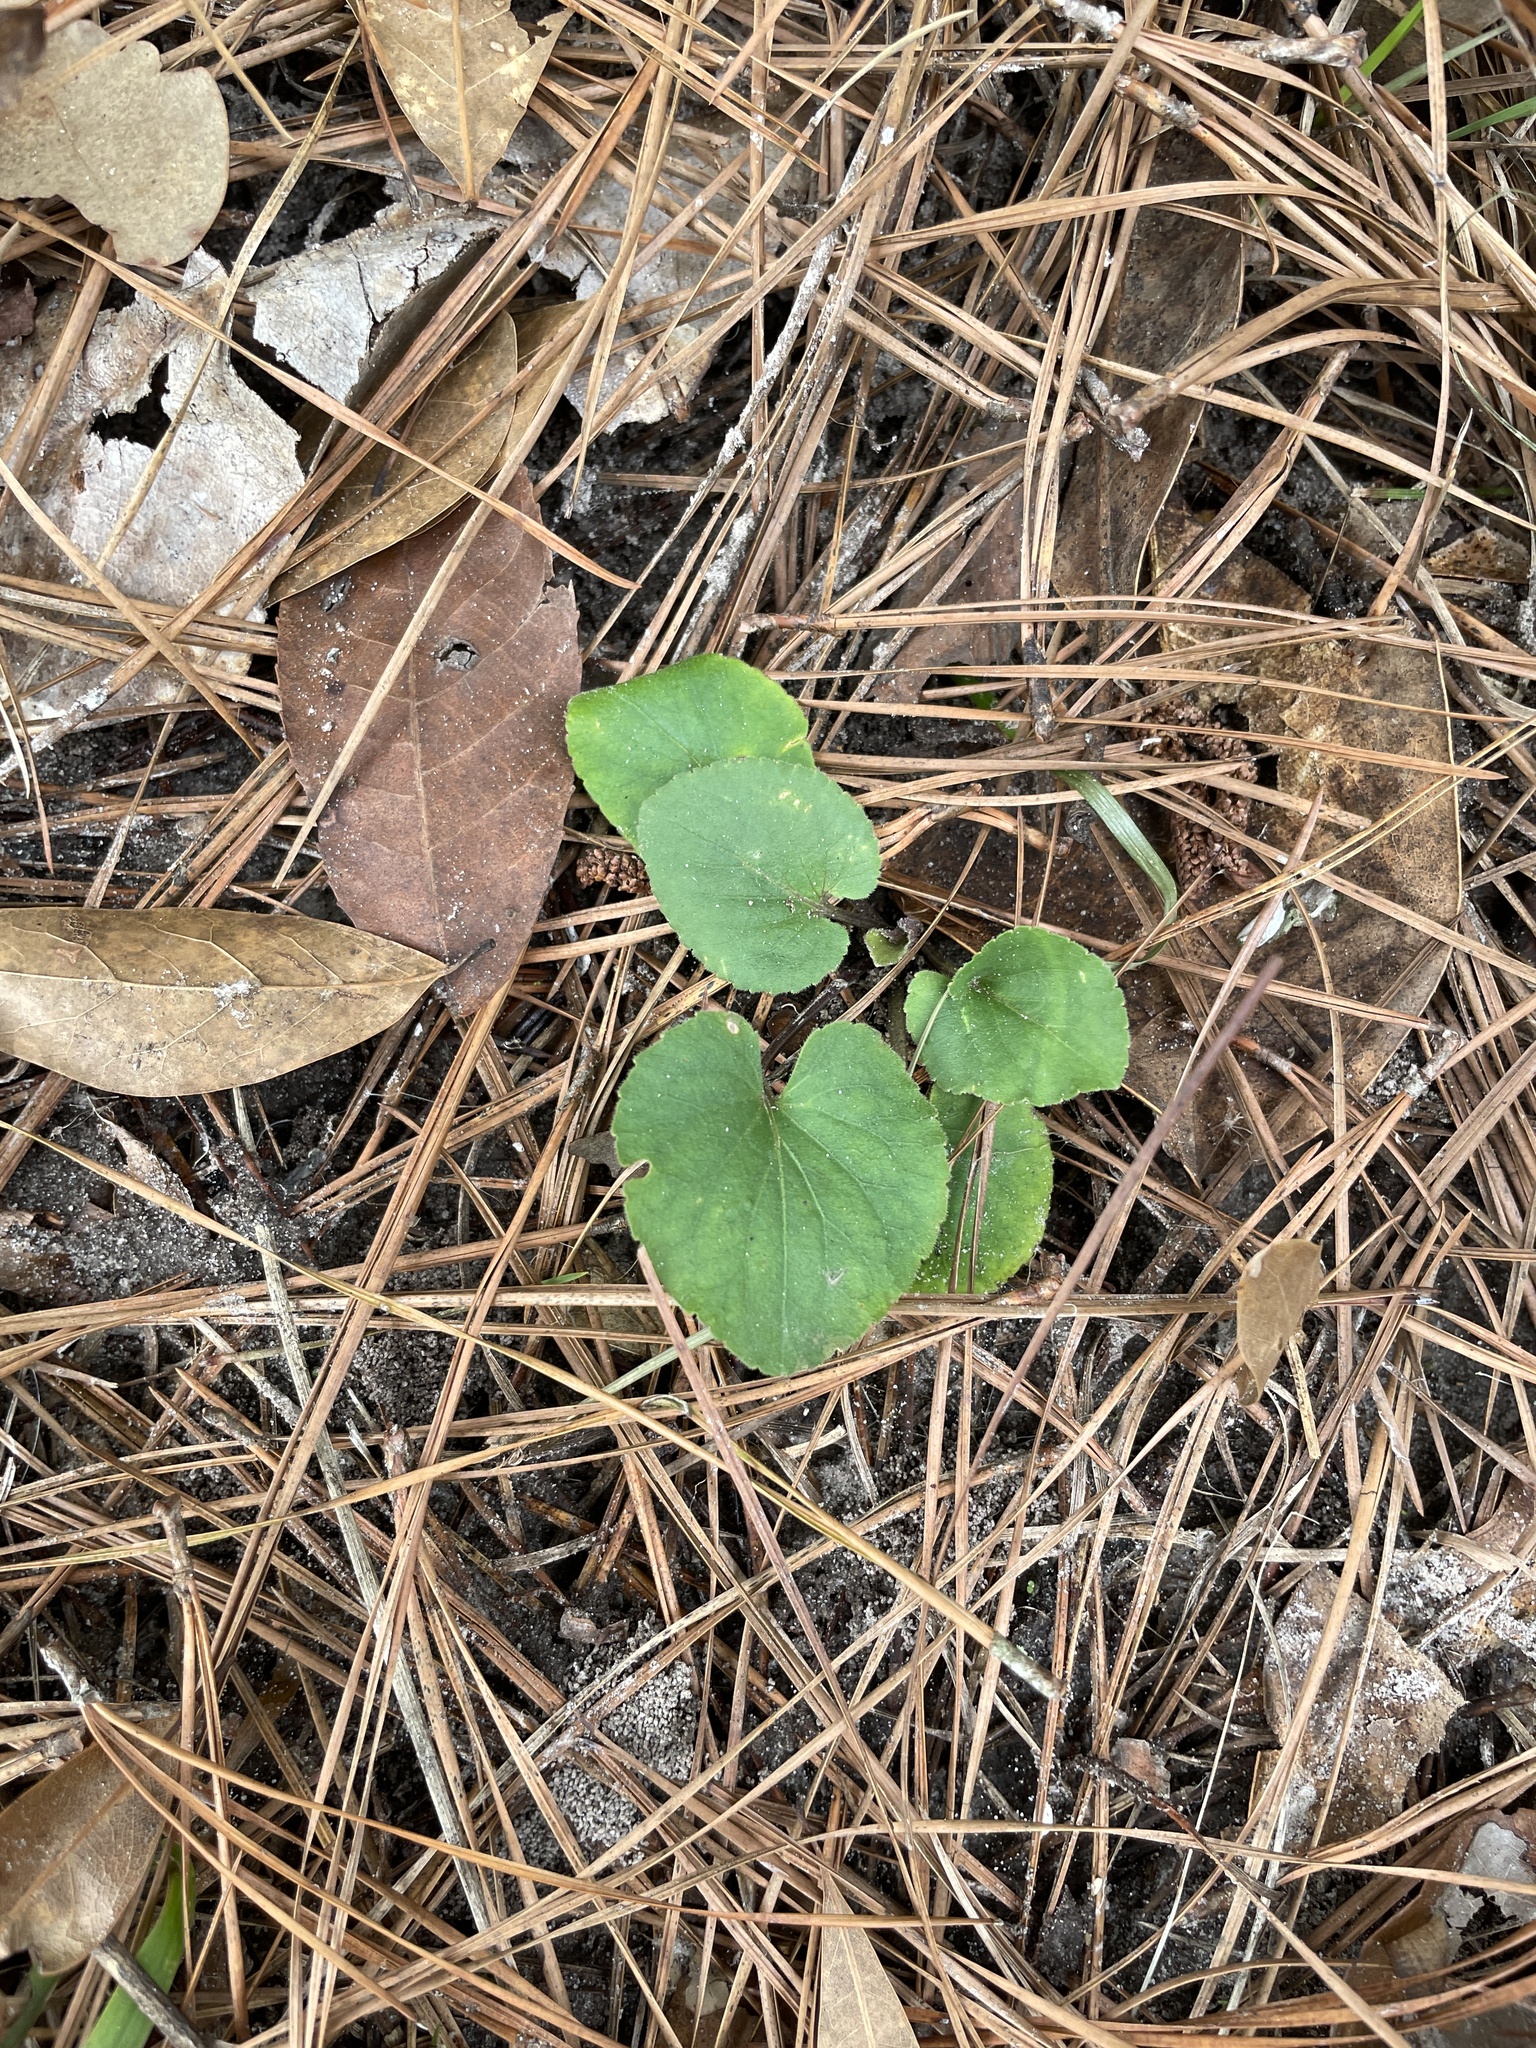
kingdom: Plantae
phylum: Tracheophyta
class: Magnoliopsida
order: Malpighiales
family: Violaceae
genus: Viola
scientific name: Viola primulifolia
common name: Primrose-leaf violet
